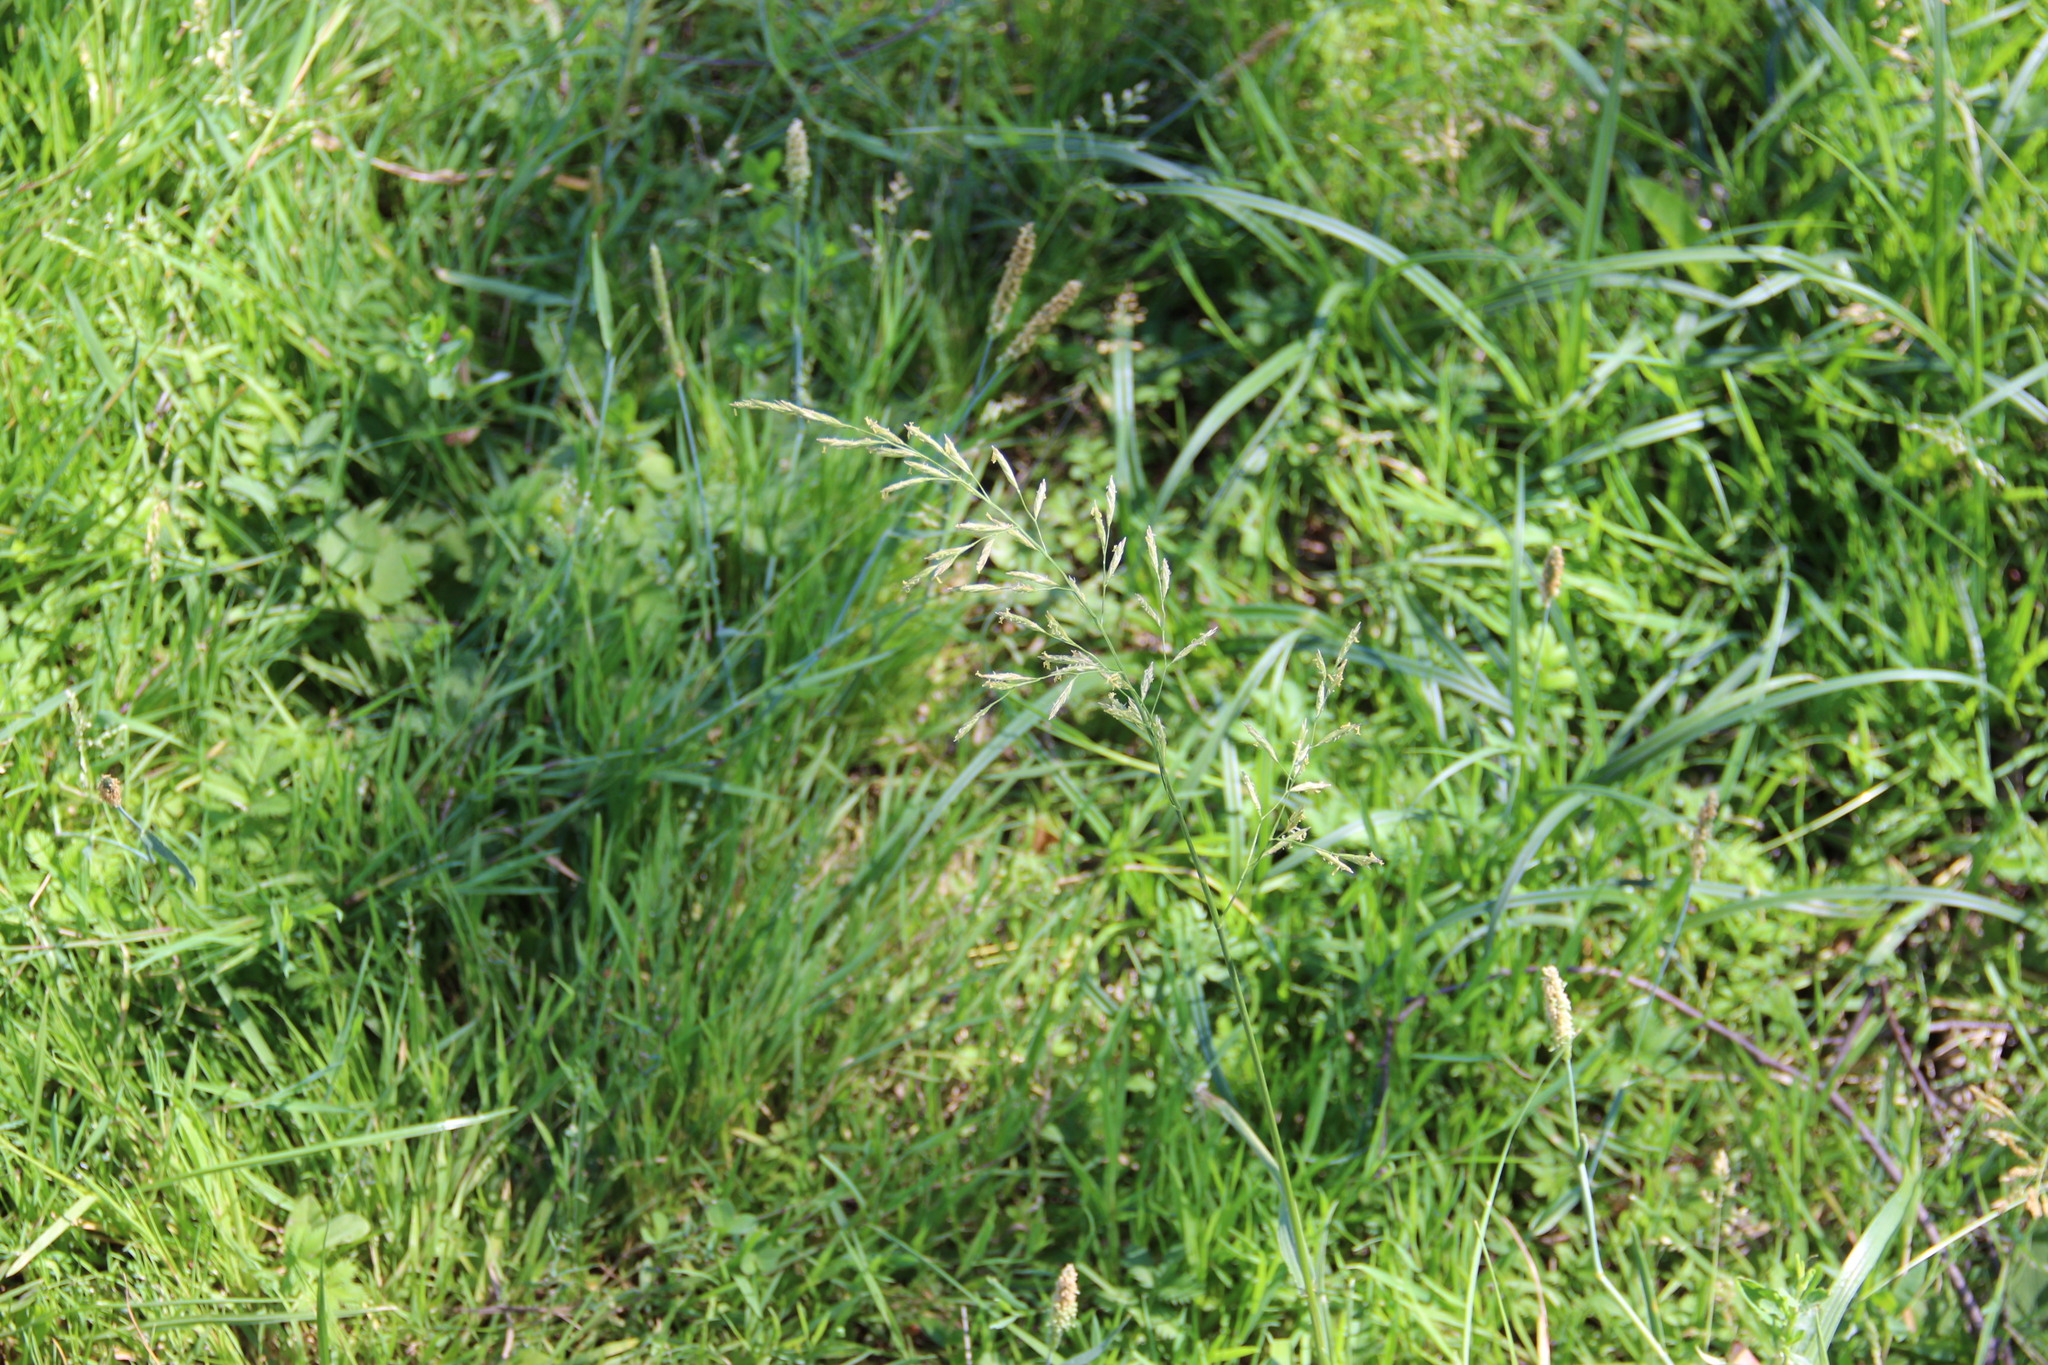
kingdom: Plantae
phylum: Tracheophyta
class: Liliopsida
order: Poales
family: Poaceae
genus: Lolium
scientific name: Lolium pratense
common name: Dover grass
